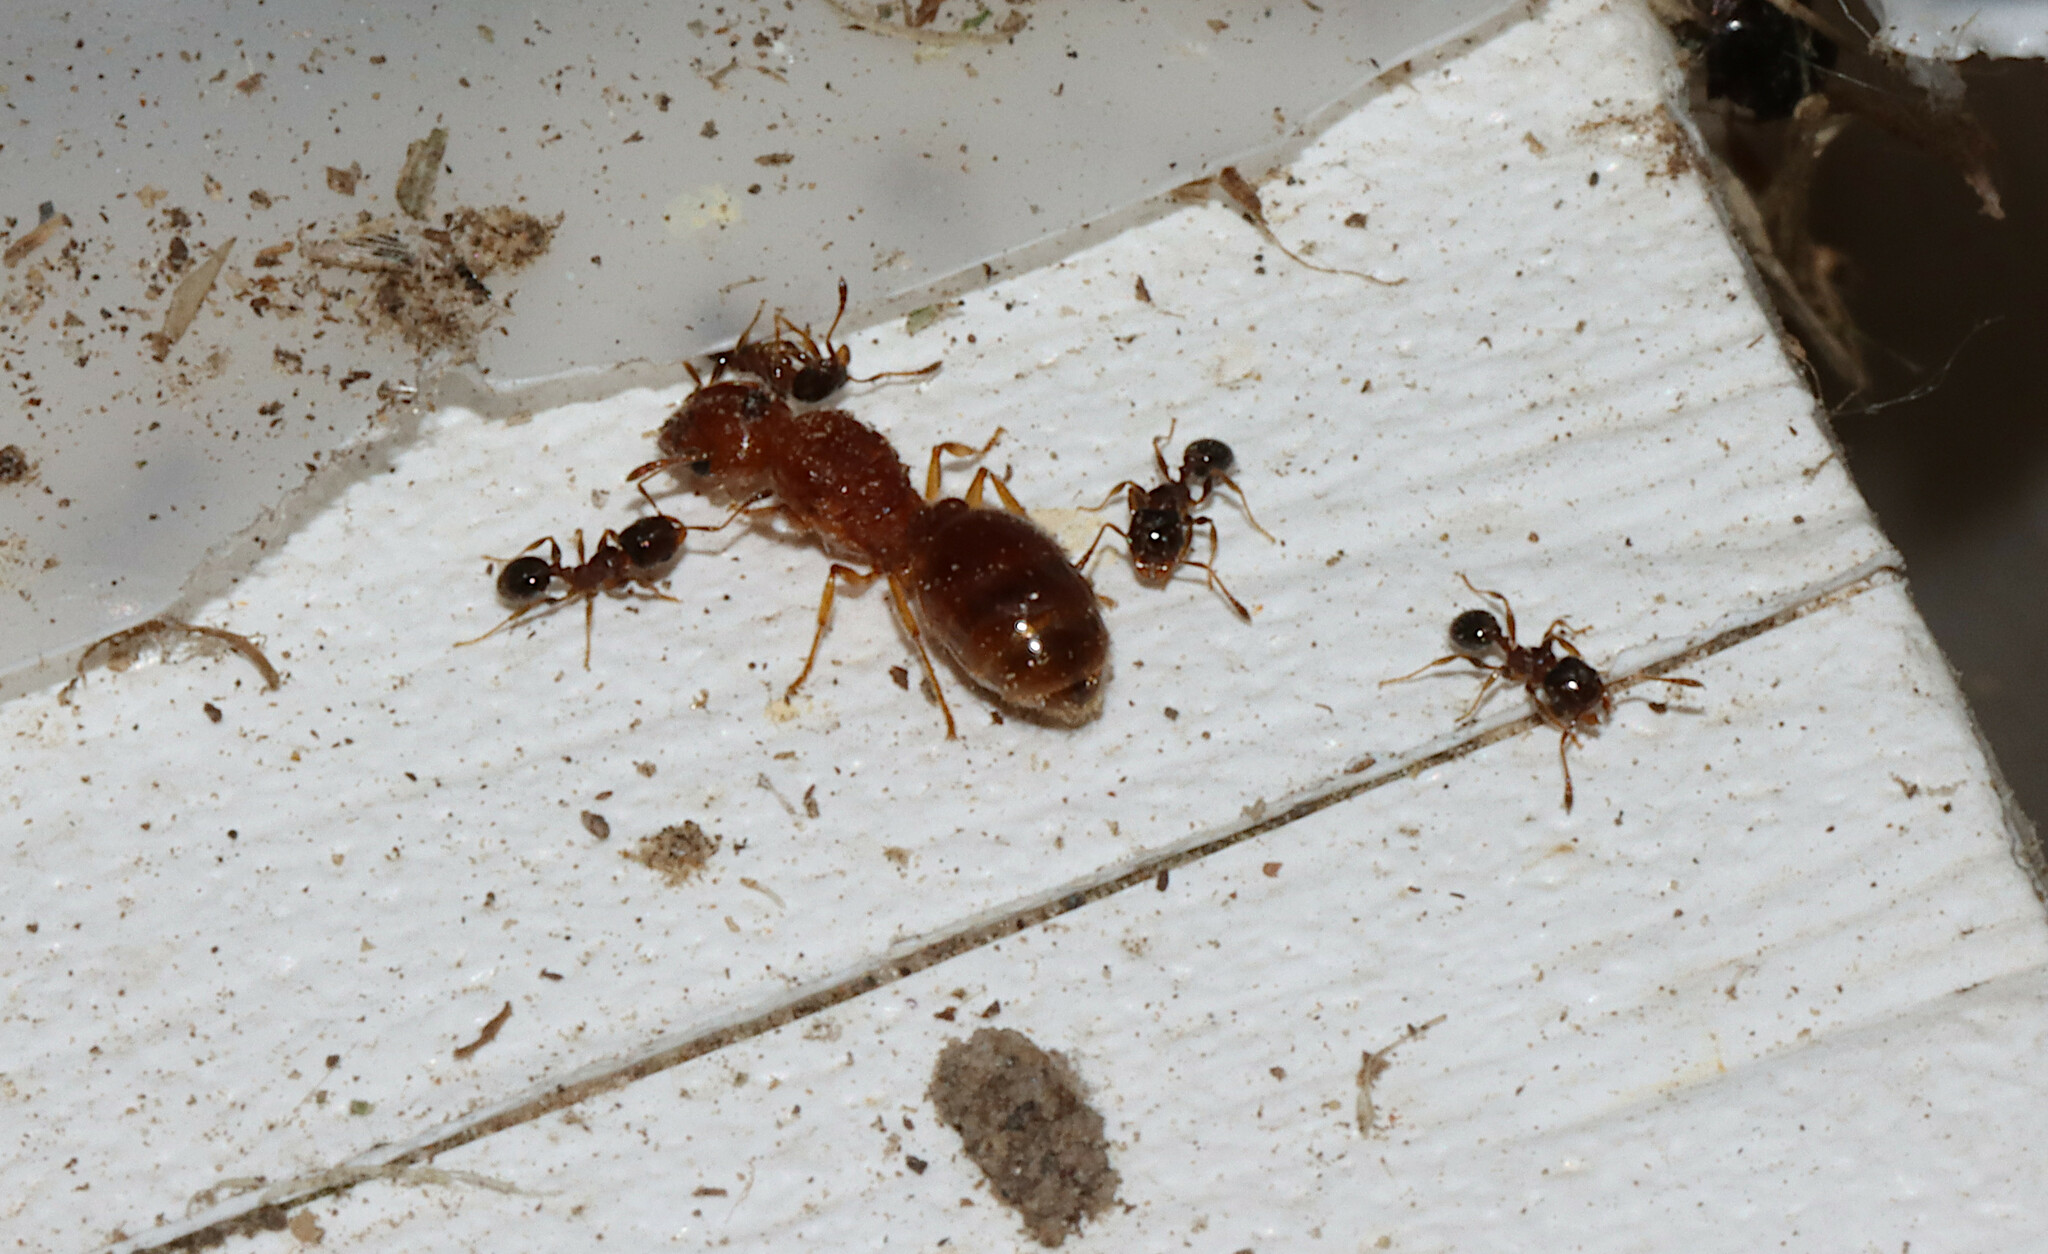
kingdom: Animalia
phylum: Arthropoda
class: Insecta
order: Hymenoptera
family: Formicidae
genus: Pheidole
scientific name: Pheidole bicarinata
